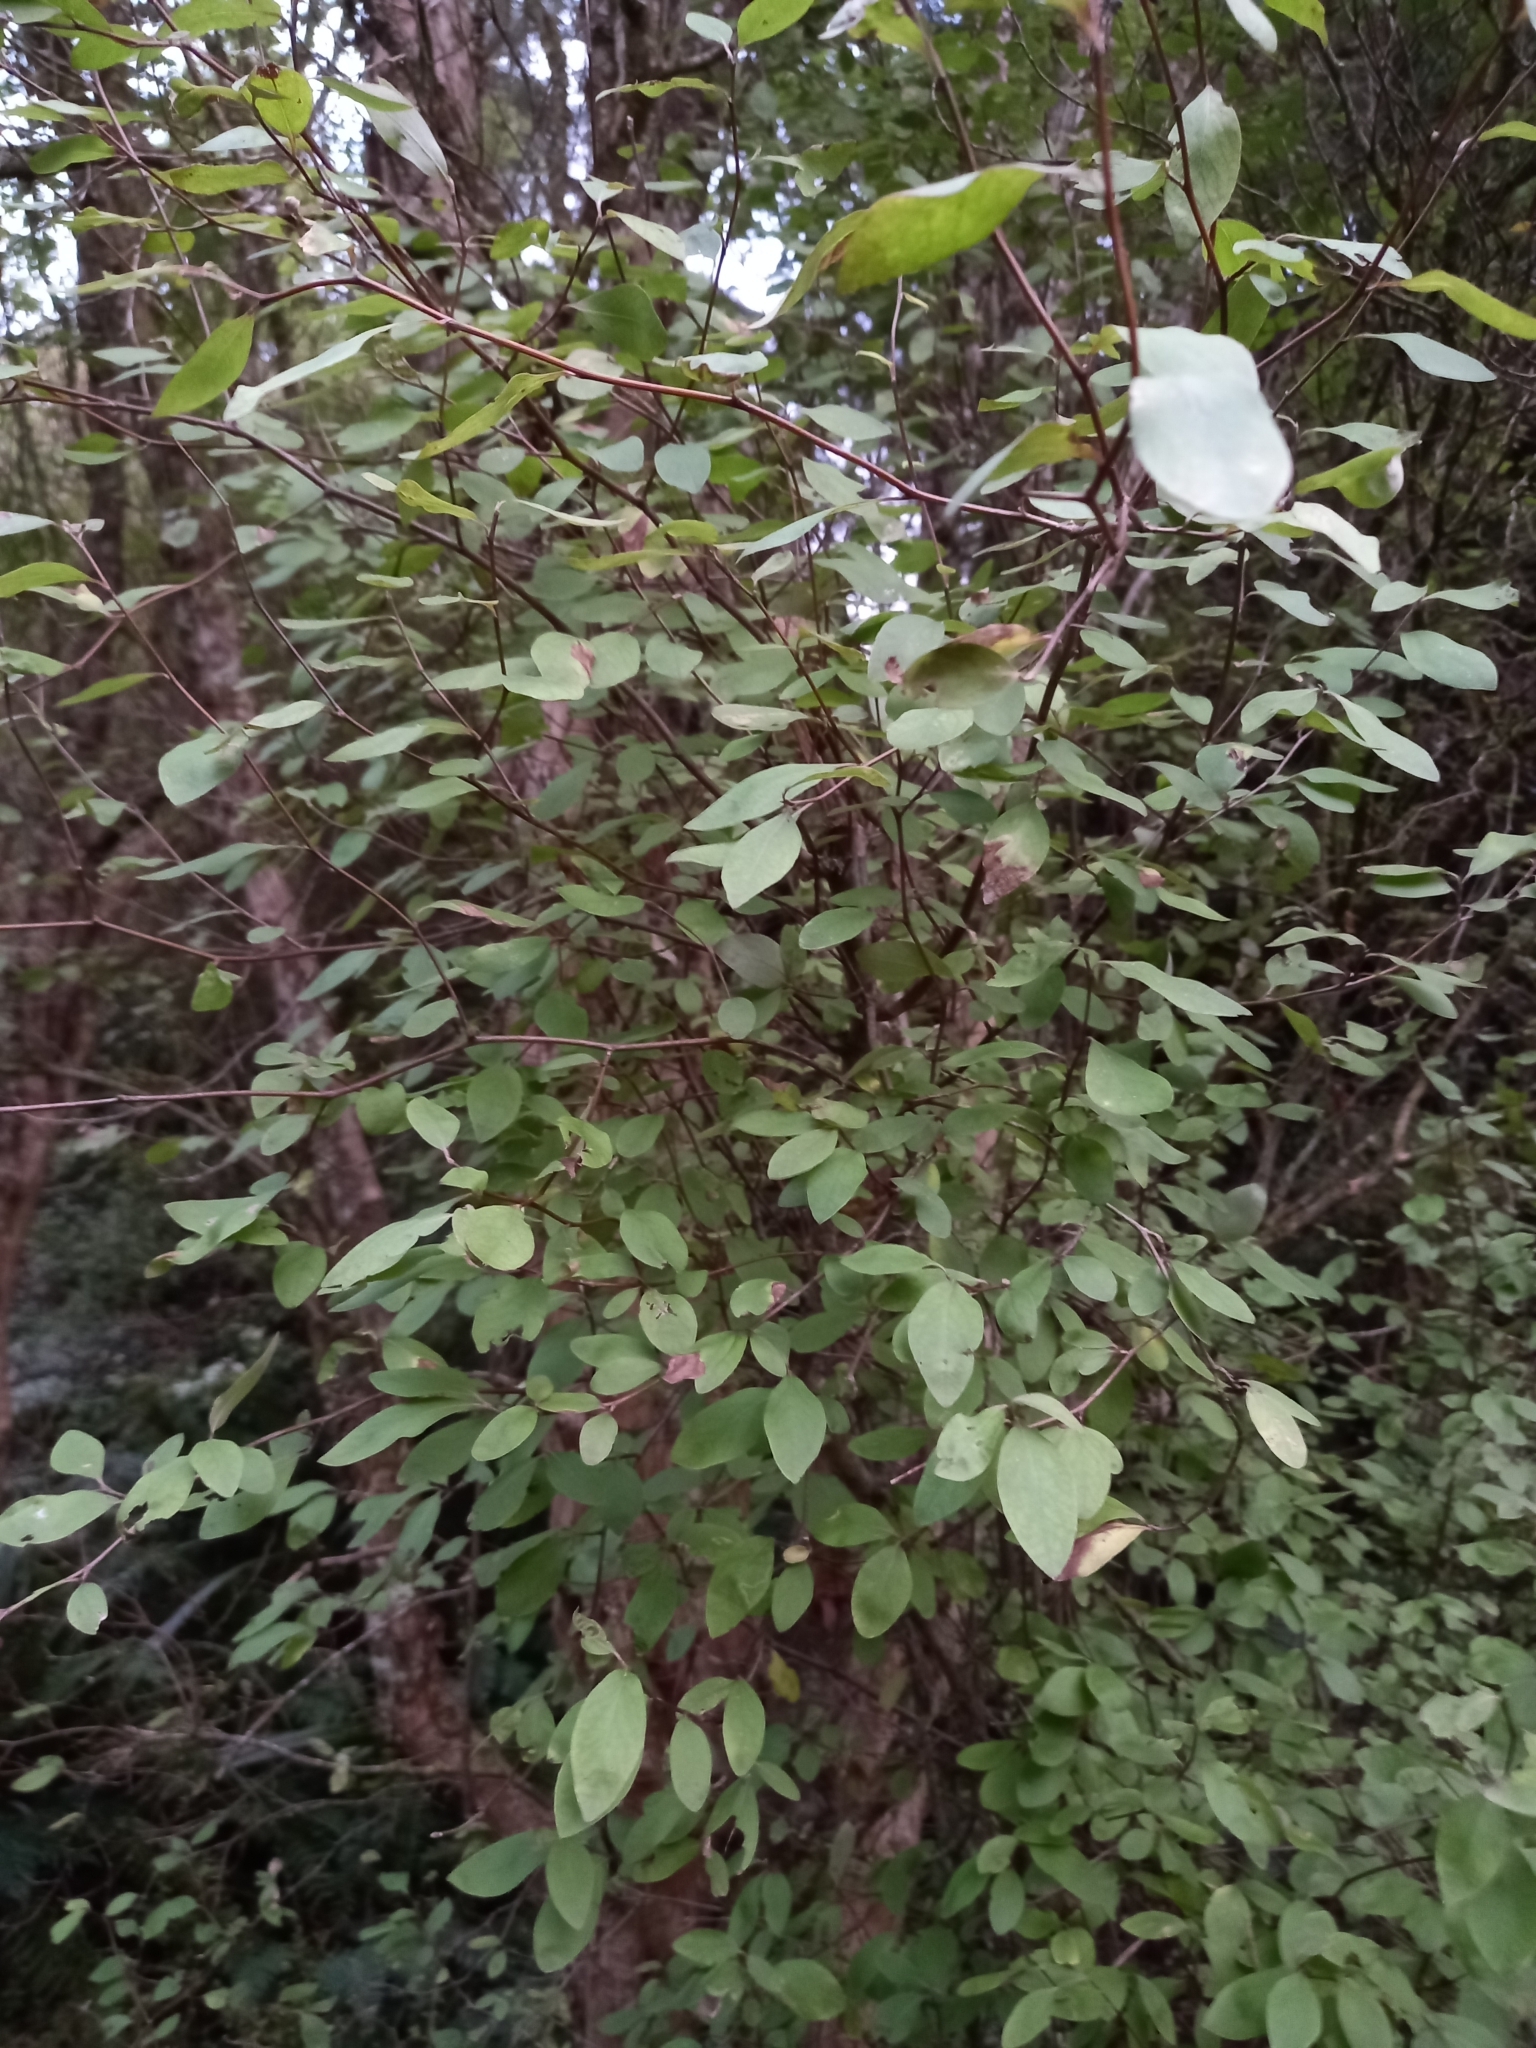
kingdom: Plantae
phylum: Tracheophyta
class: Magnoliopsida
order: Asterales
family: Asteraceae
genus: Olearia
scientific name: Olearia hectorii
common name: Deciduous tree daisy
